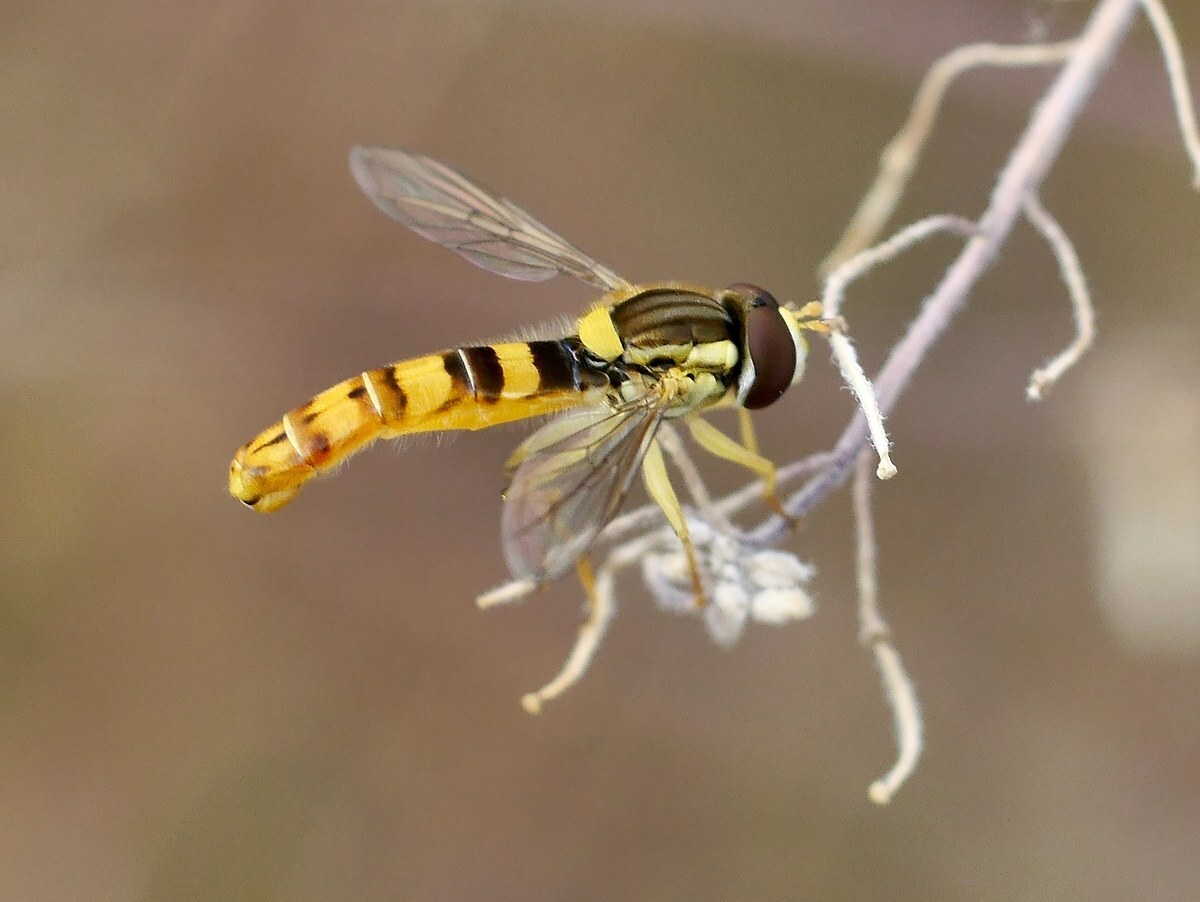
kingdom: Animalia
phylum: Arthropoda
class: Insecta
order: Diptera
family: Syrphidae
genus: Sphaerophoria
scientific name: Sphaerophoria scripta
